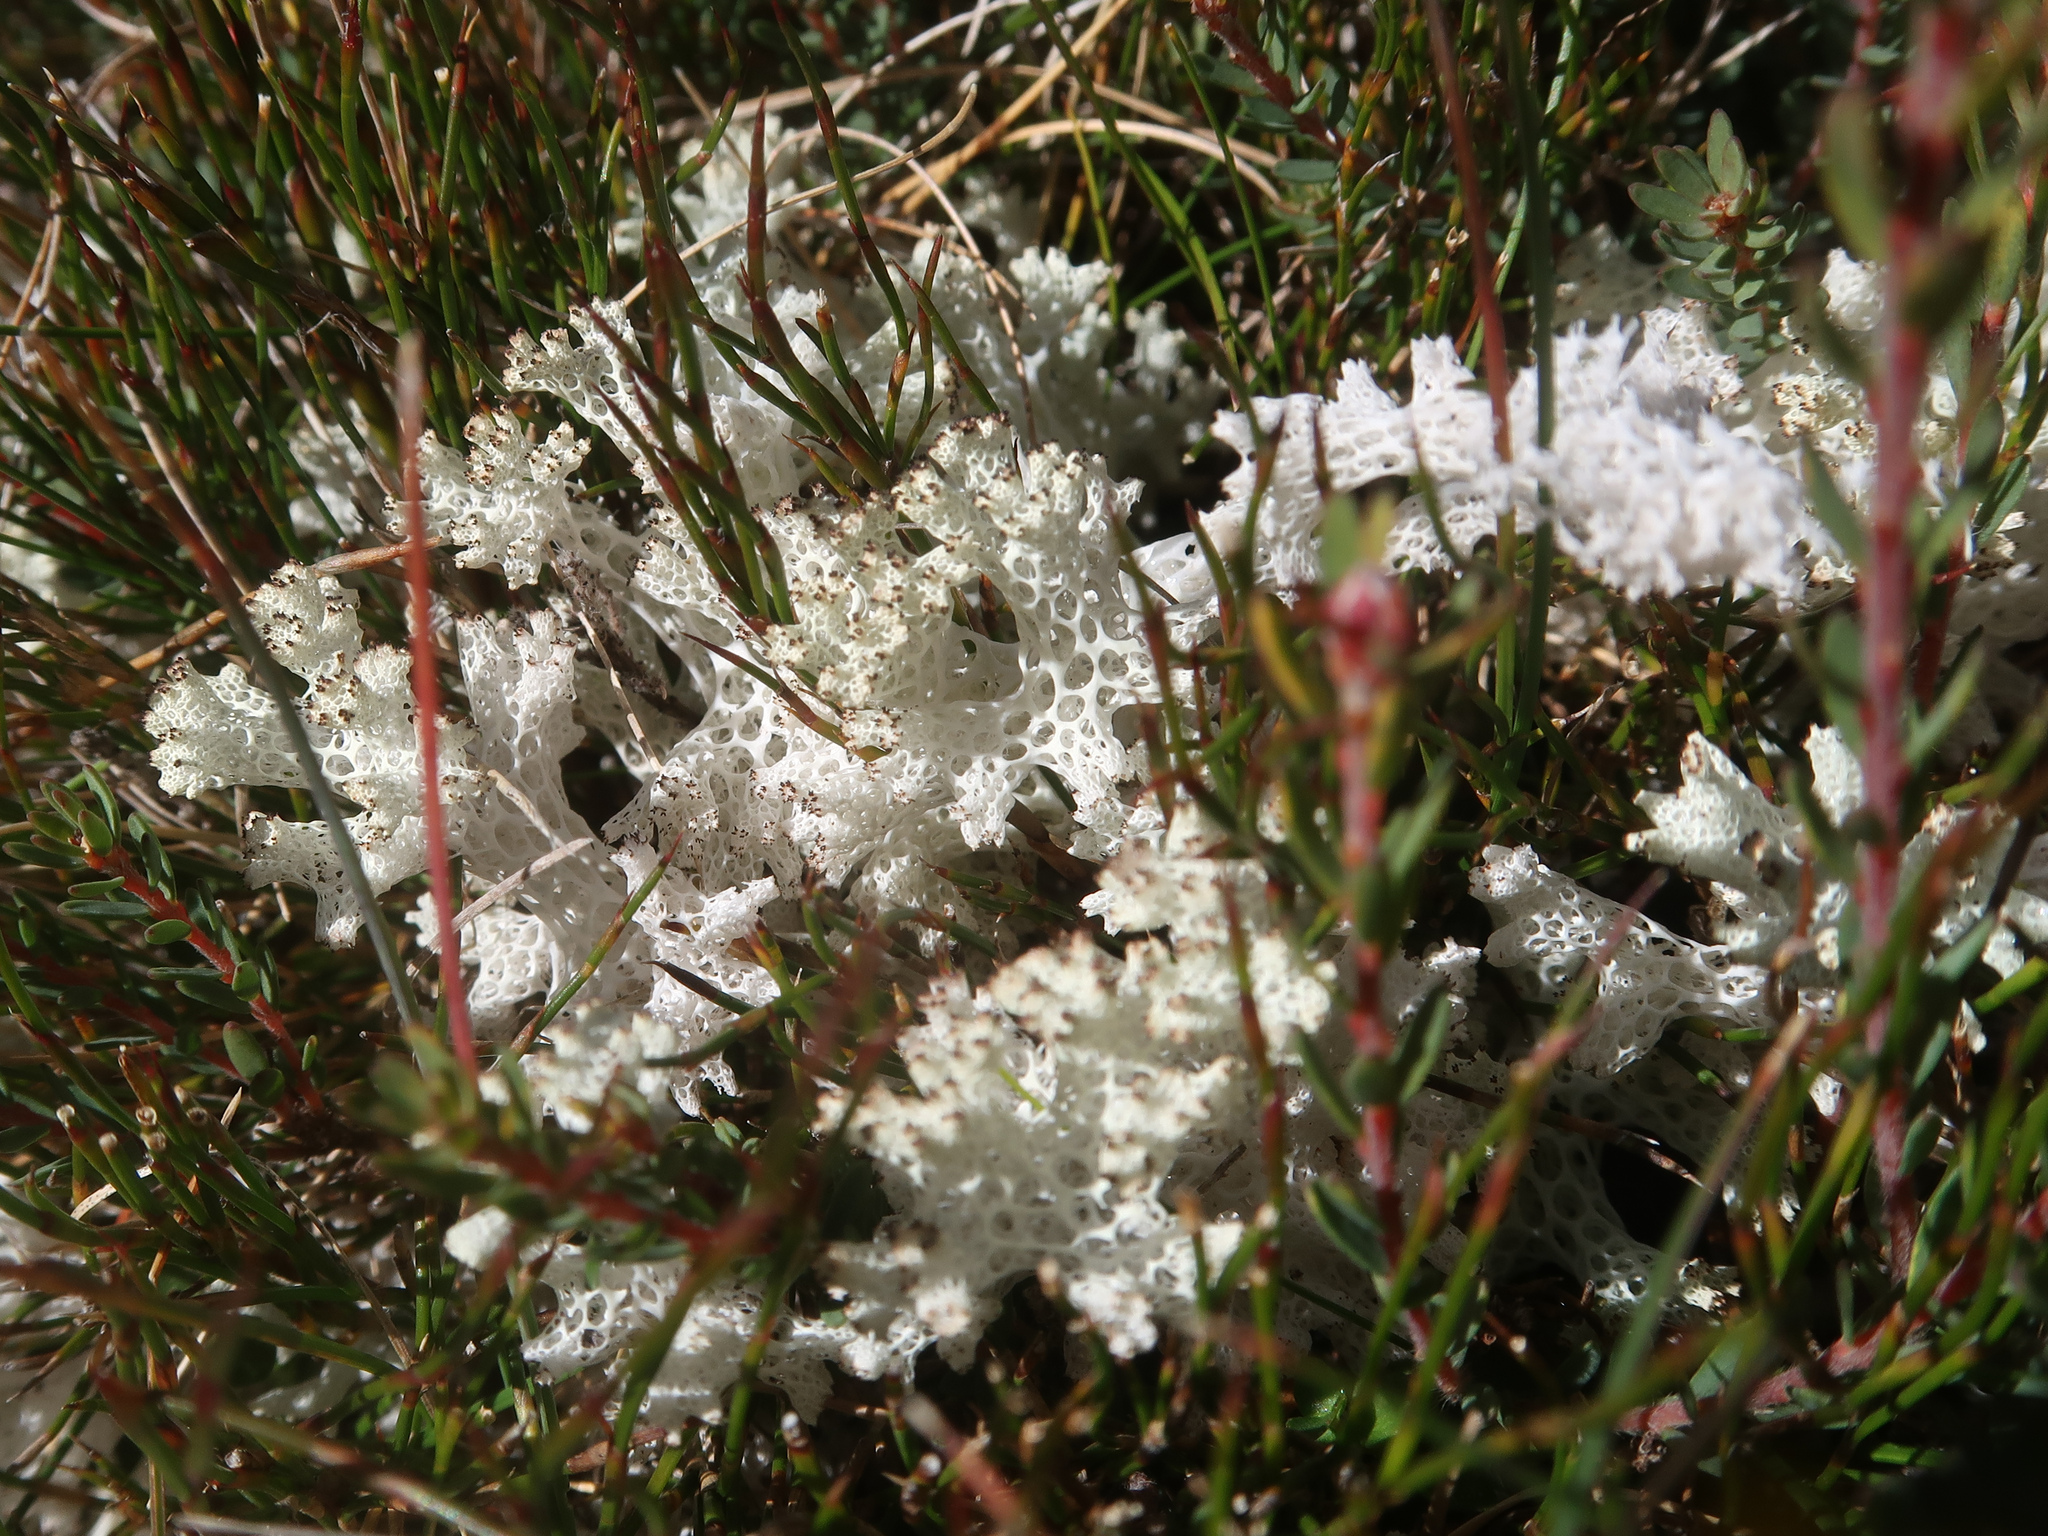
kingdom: Fungi
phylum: Ascomycota
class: Lecanoromycetes
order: Lecanorales
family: Cladoniaceae
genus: Pulchrocladia
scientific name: Pulchrocladia retipora
